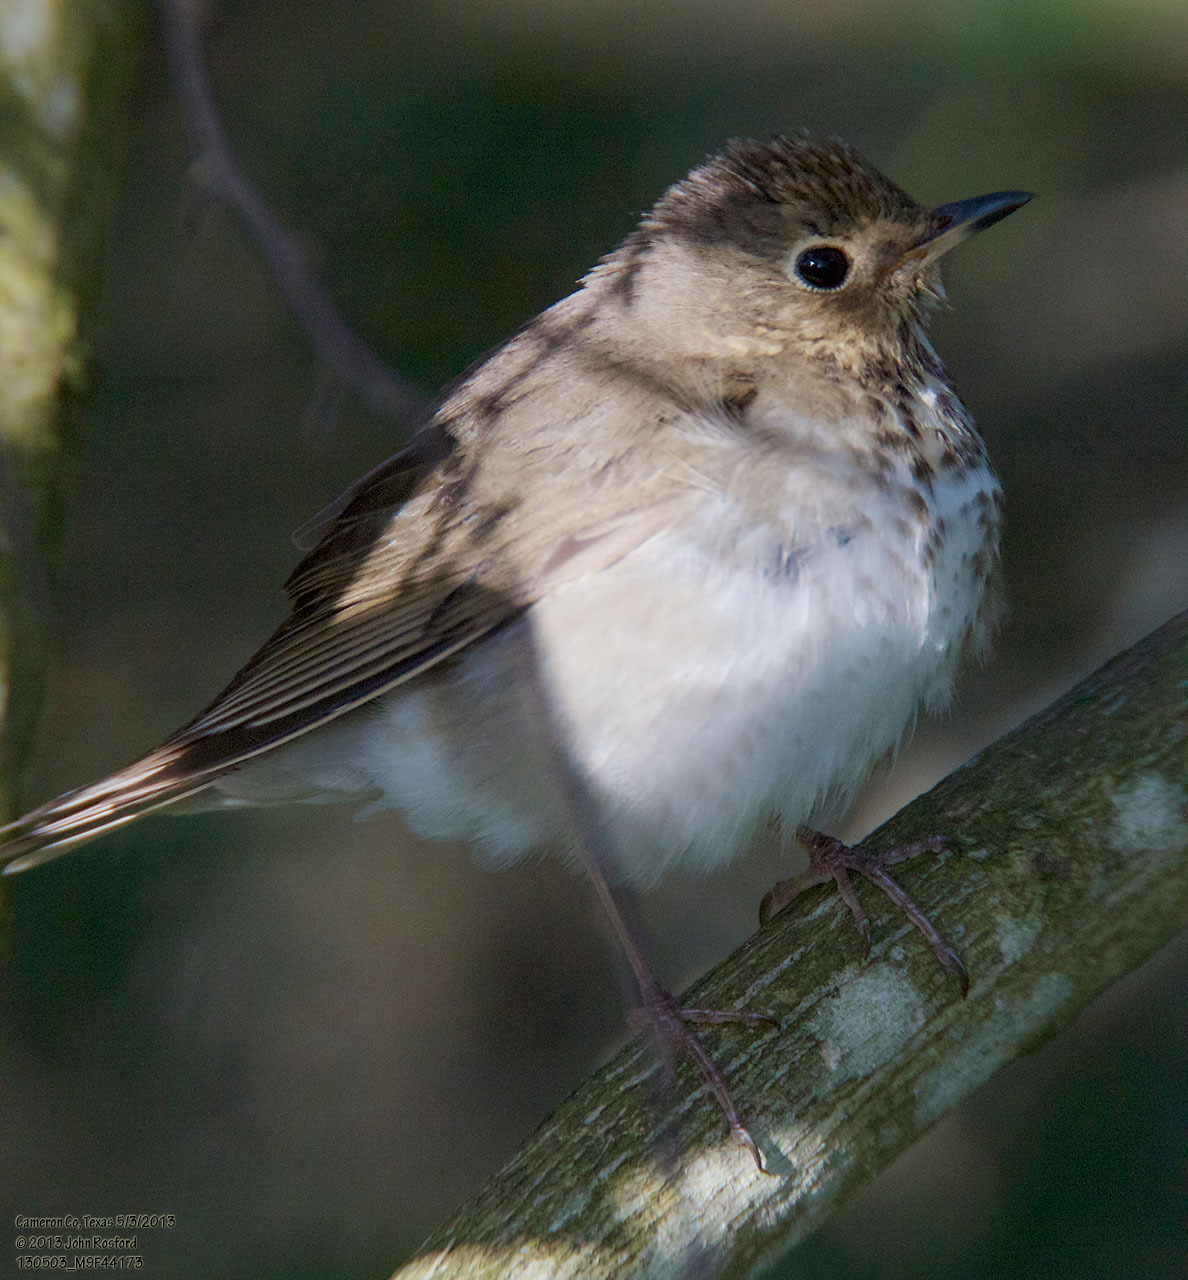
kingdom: Animalia
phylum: Chordata
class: Aves
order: Passeriformes
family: Turdidae
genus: Catharus
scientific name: Catharus ustulatus
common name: Swainson's thrush
